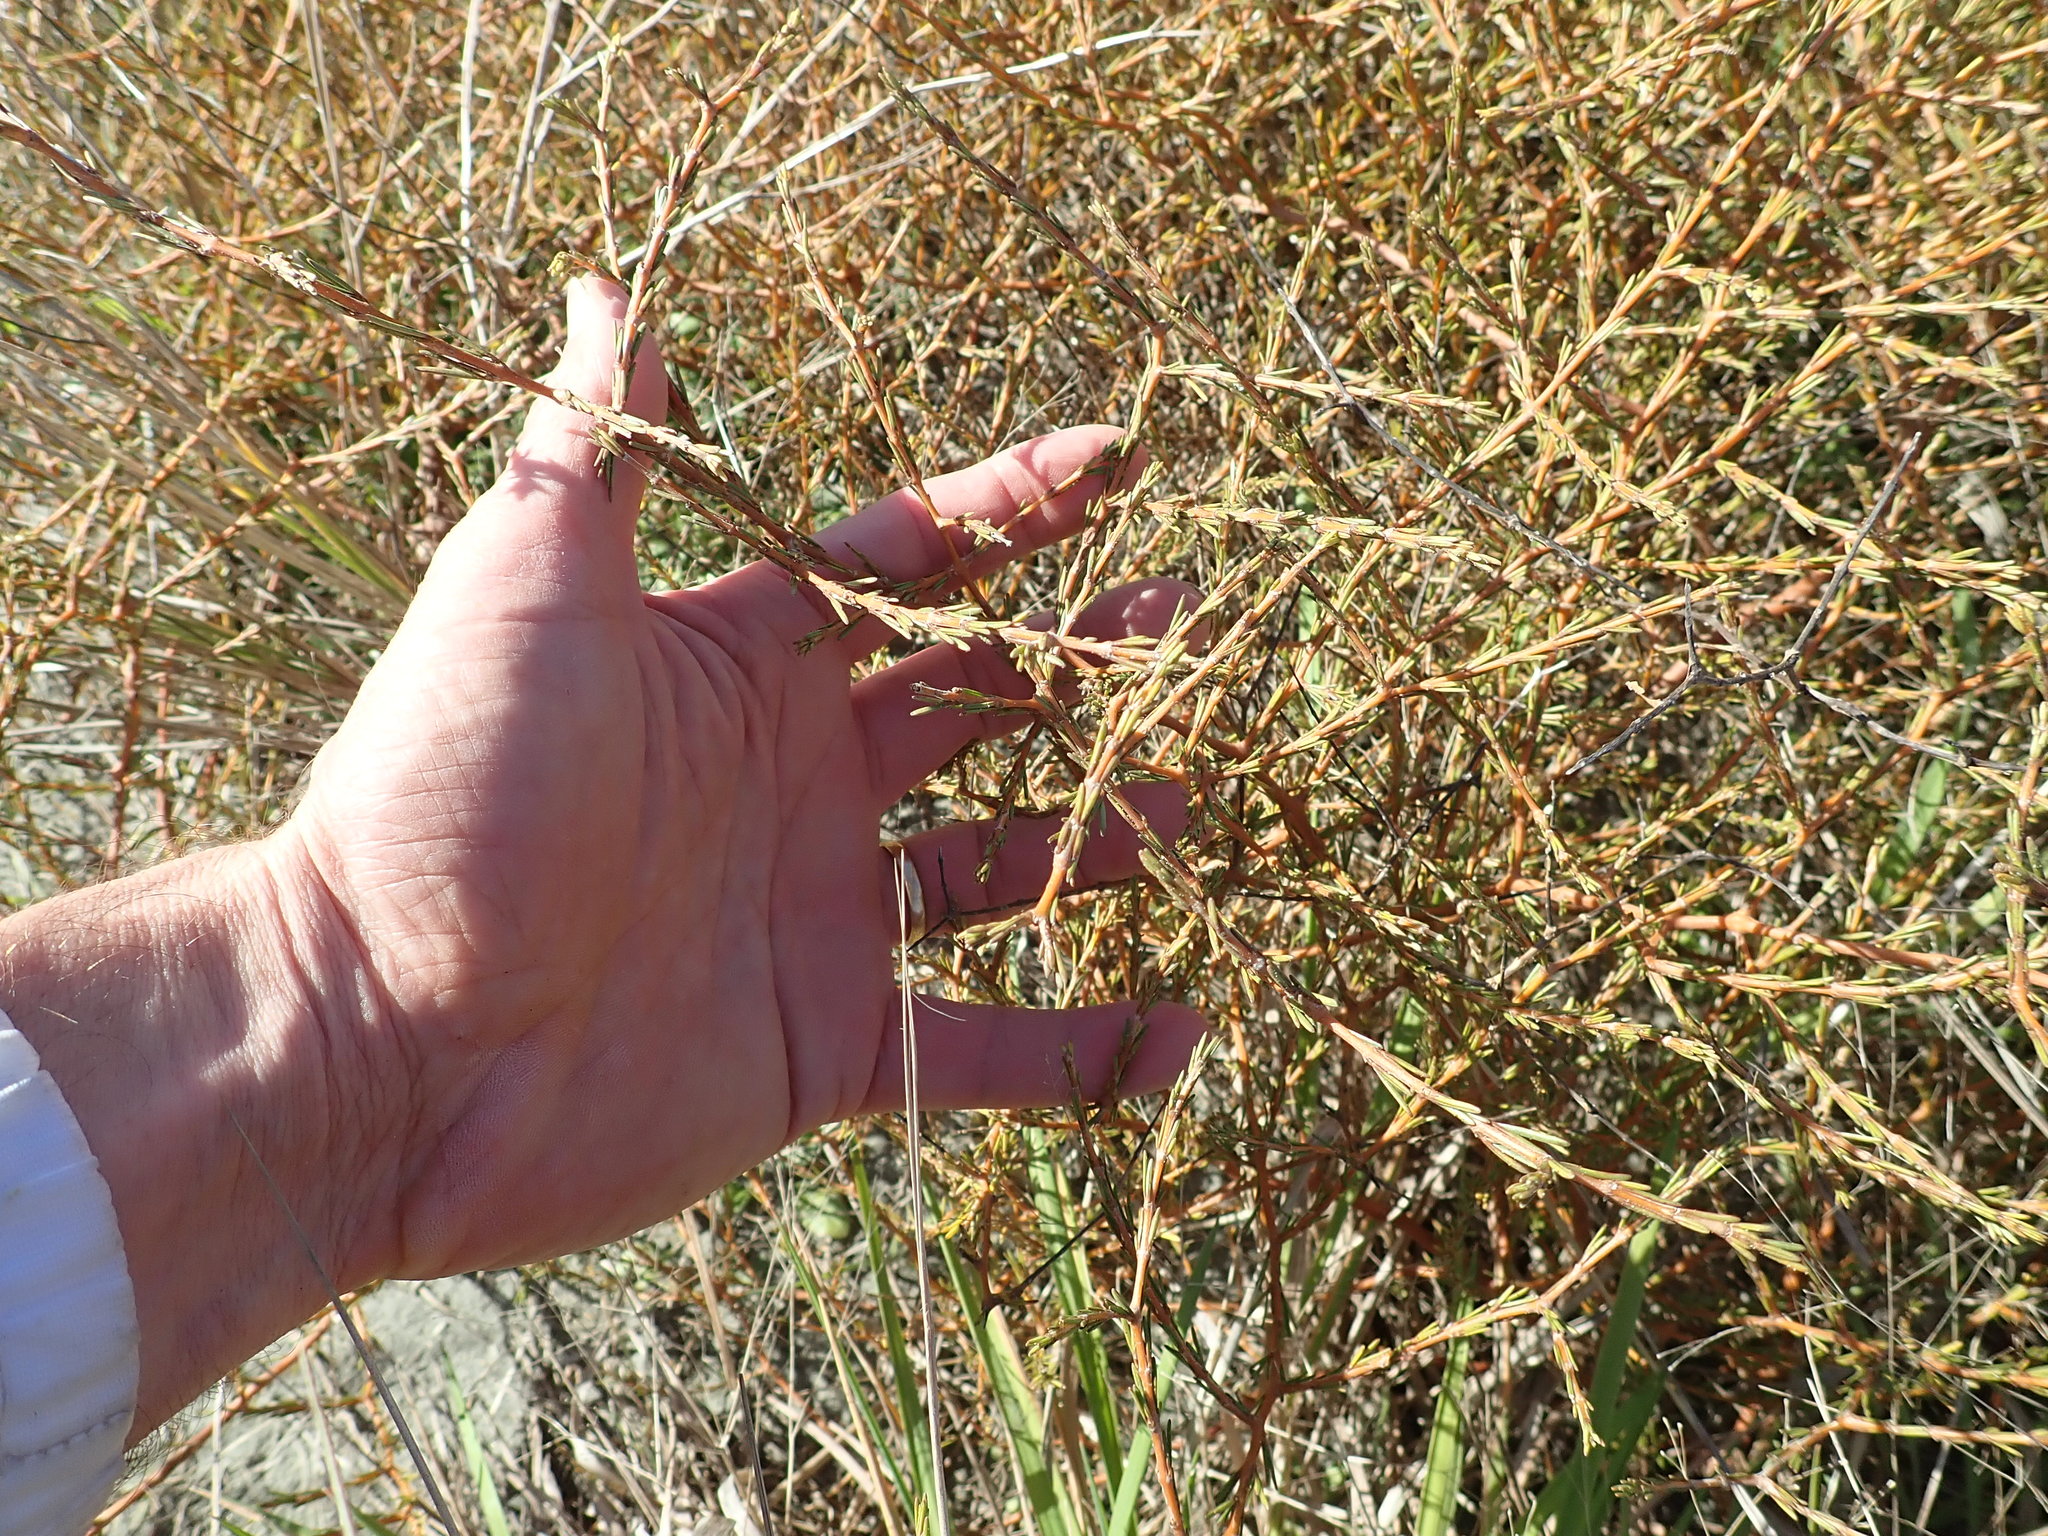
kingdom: Plantae
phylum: Tracheophyta
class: Magnoliopsida
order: Gentianales
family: Rubiaceae
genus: Coprosma
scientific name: Coprosma acerosa
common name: Sand coprosma
